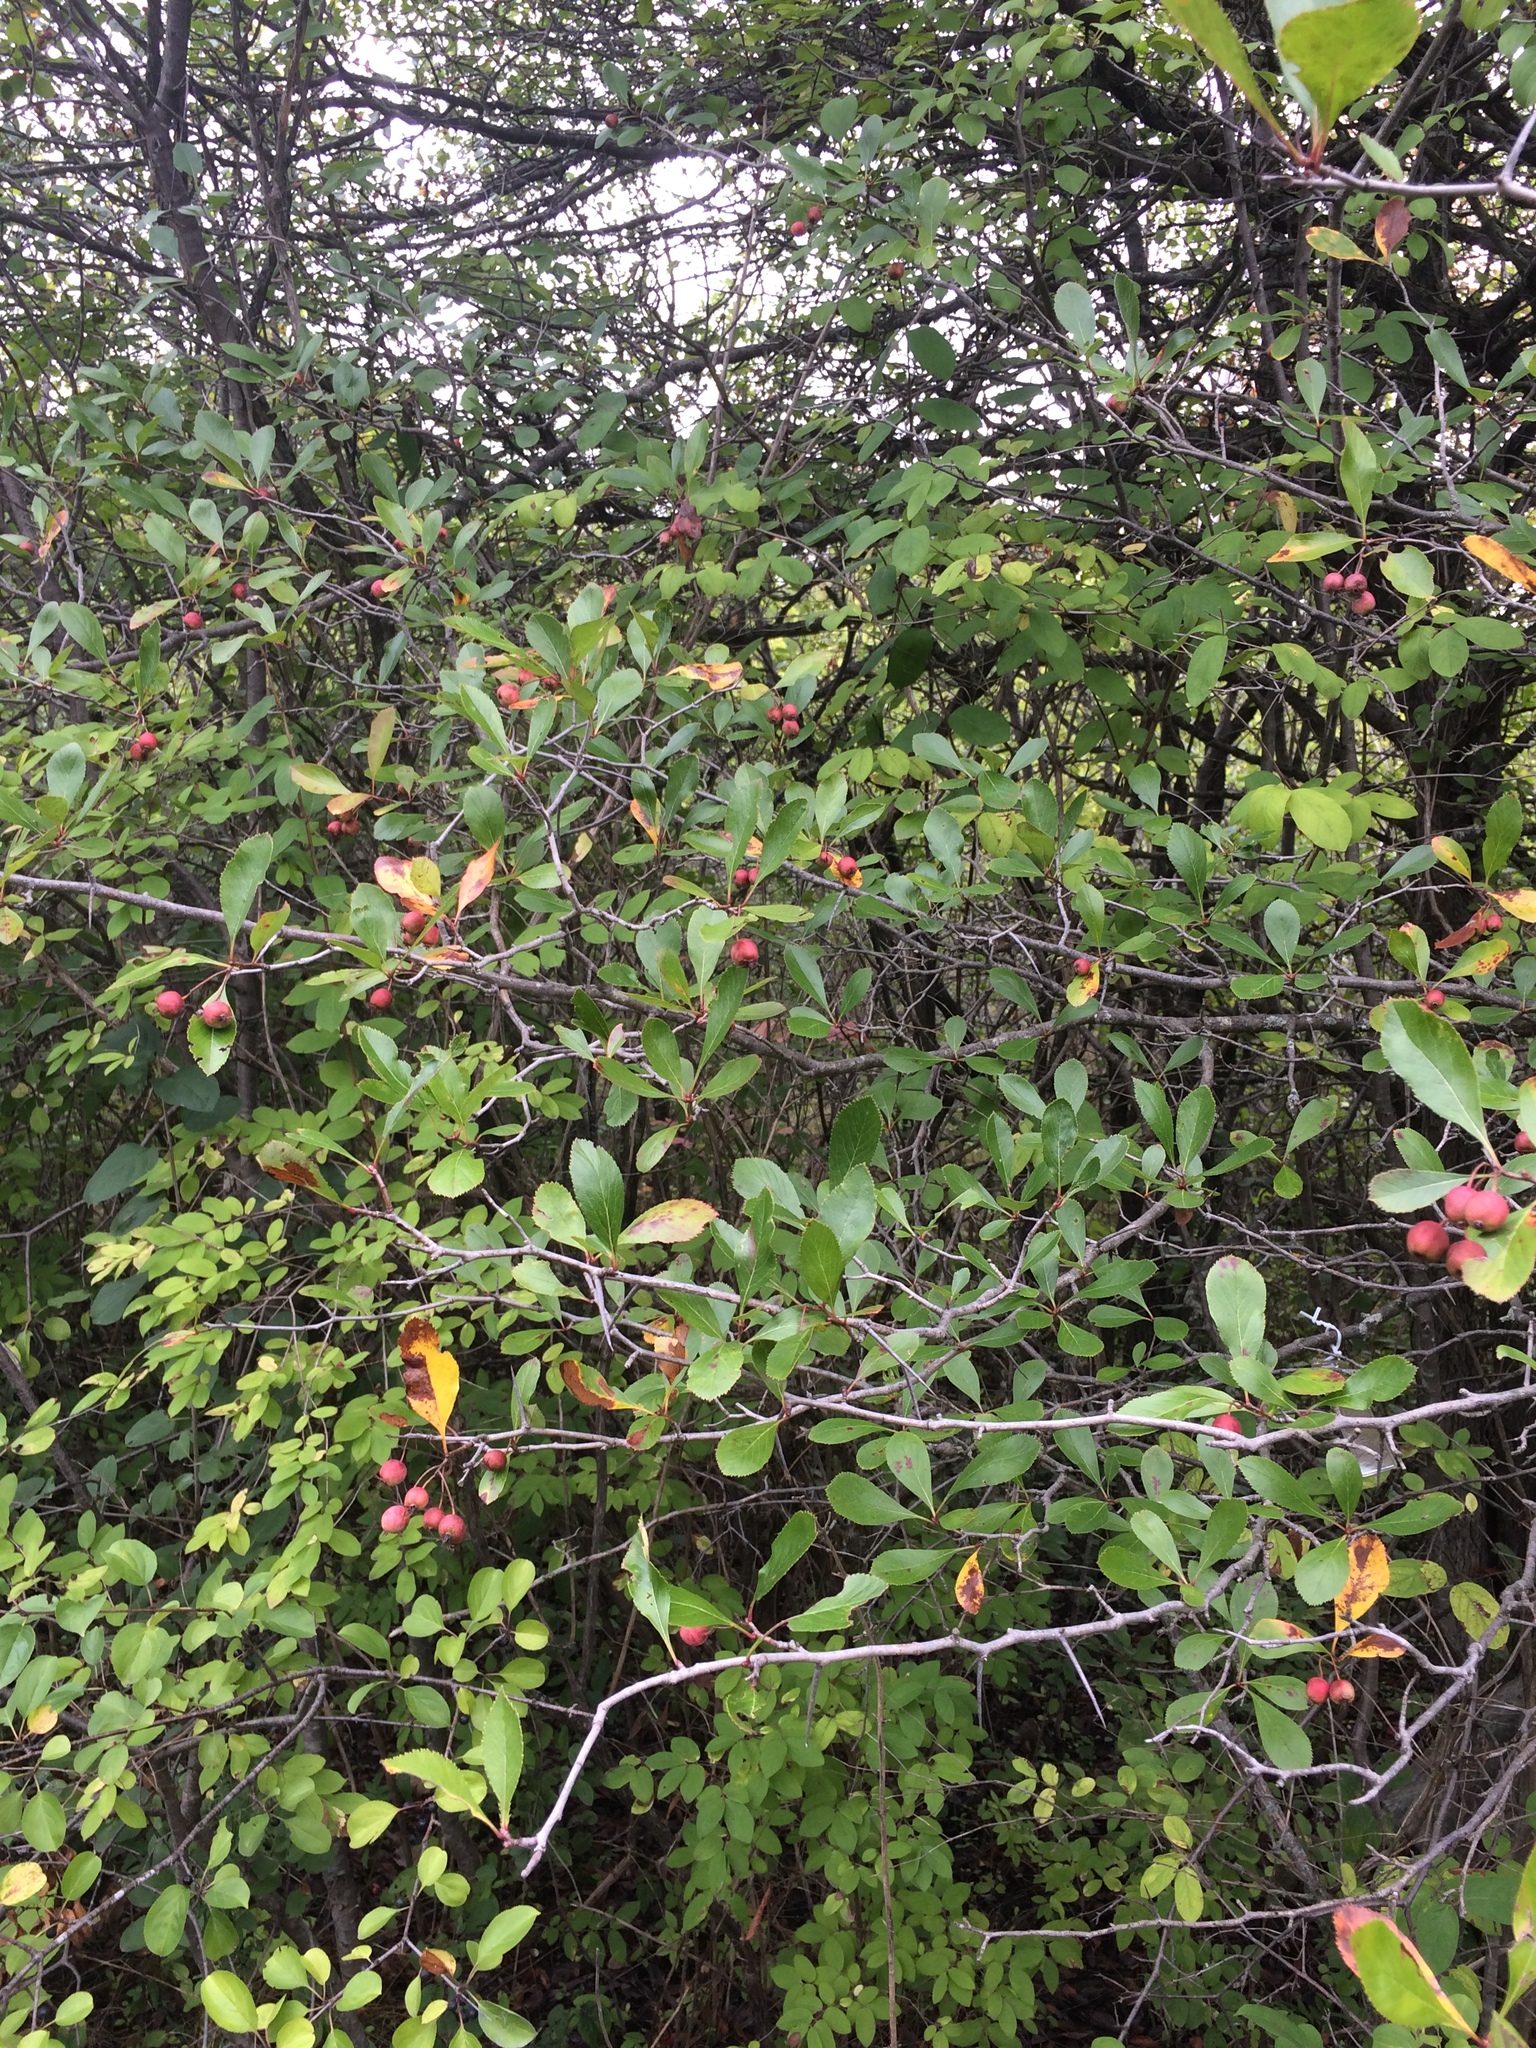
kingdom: Plantae
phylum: Tracheophyta
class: Magnoliopsida
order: Rosales
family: Rosaceae
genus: Crataegus
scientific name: Crataegus crus-galli
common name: Cockspurthorn
